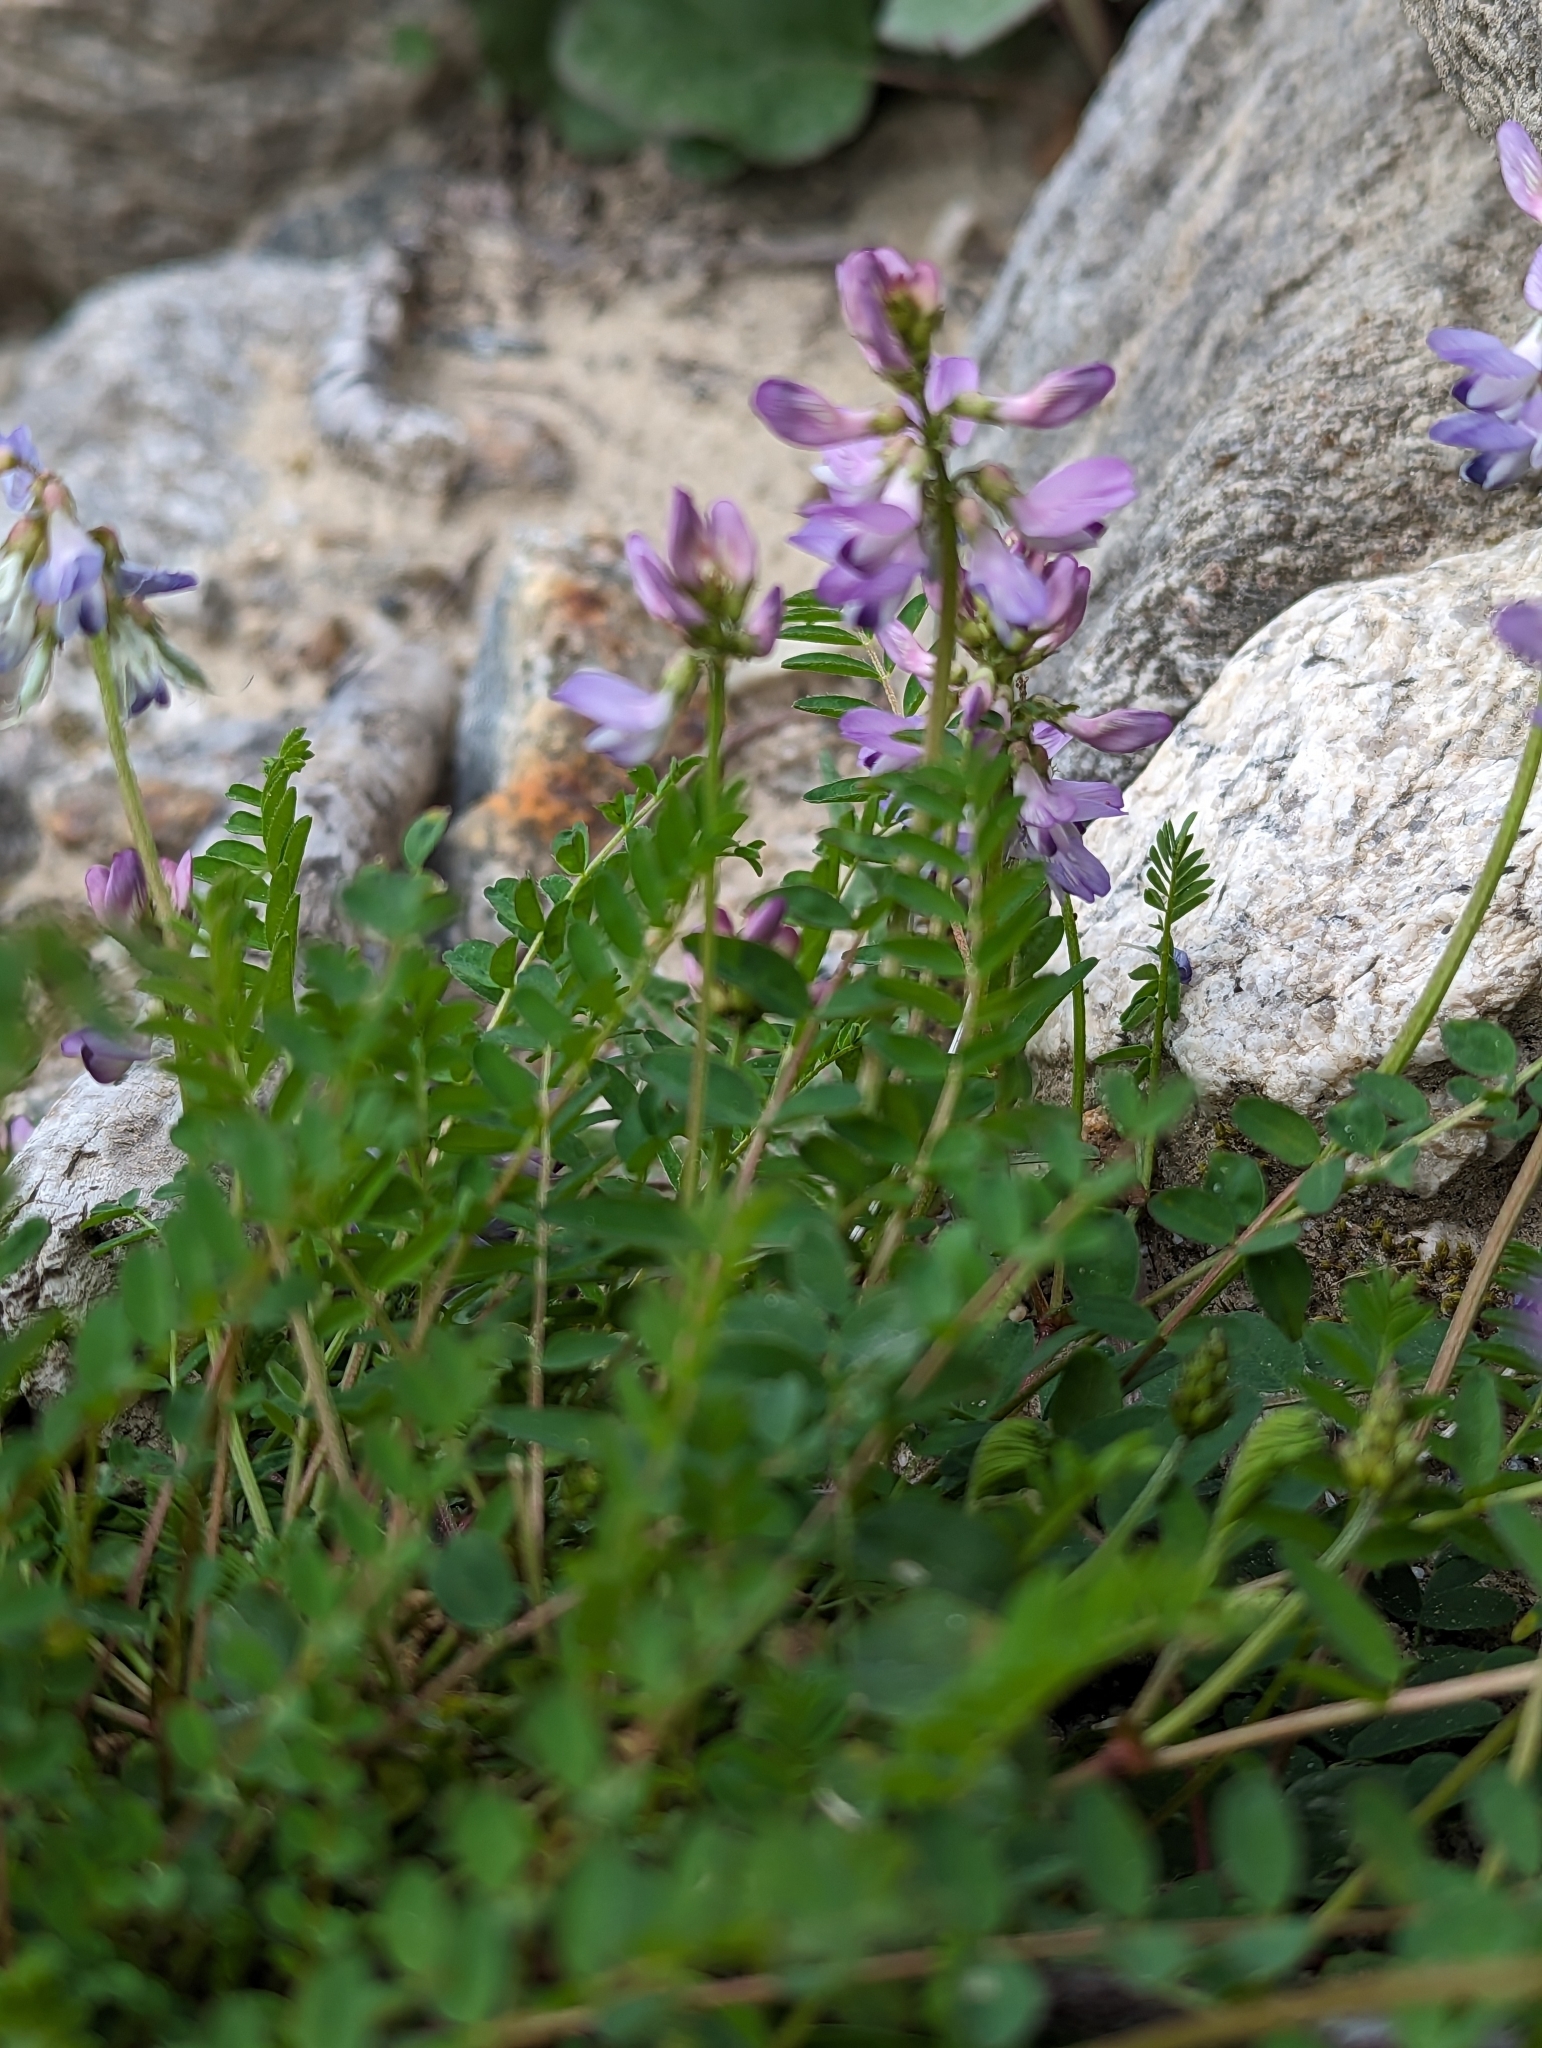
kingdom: Plantae
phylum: Tracheophyta
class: Magnoliopsida
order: Fabales
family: Fabaceae
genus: Astragalus
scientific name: Astragalus alpinus
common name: Alpine milk-vetch
